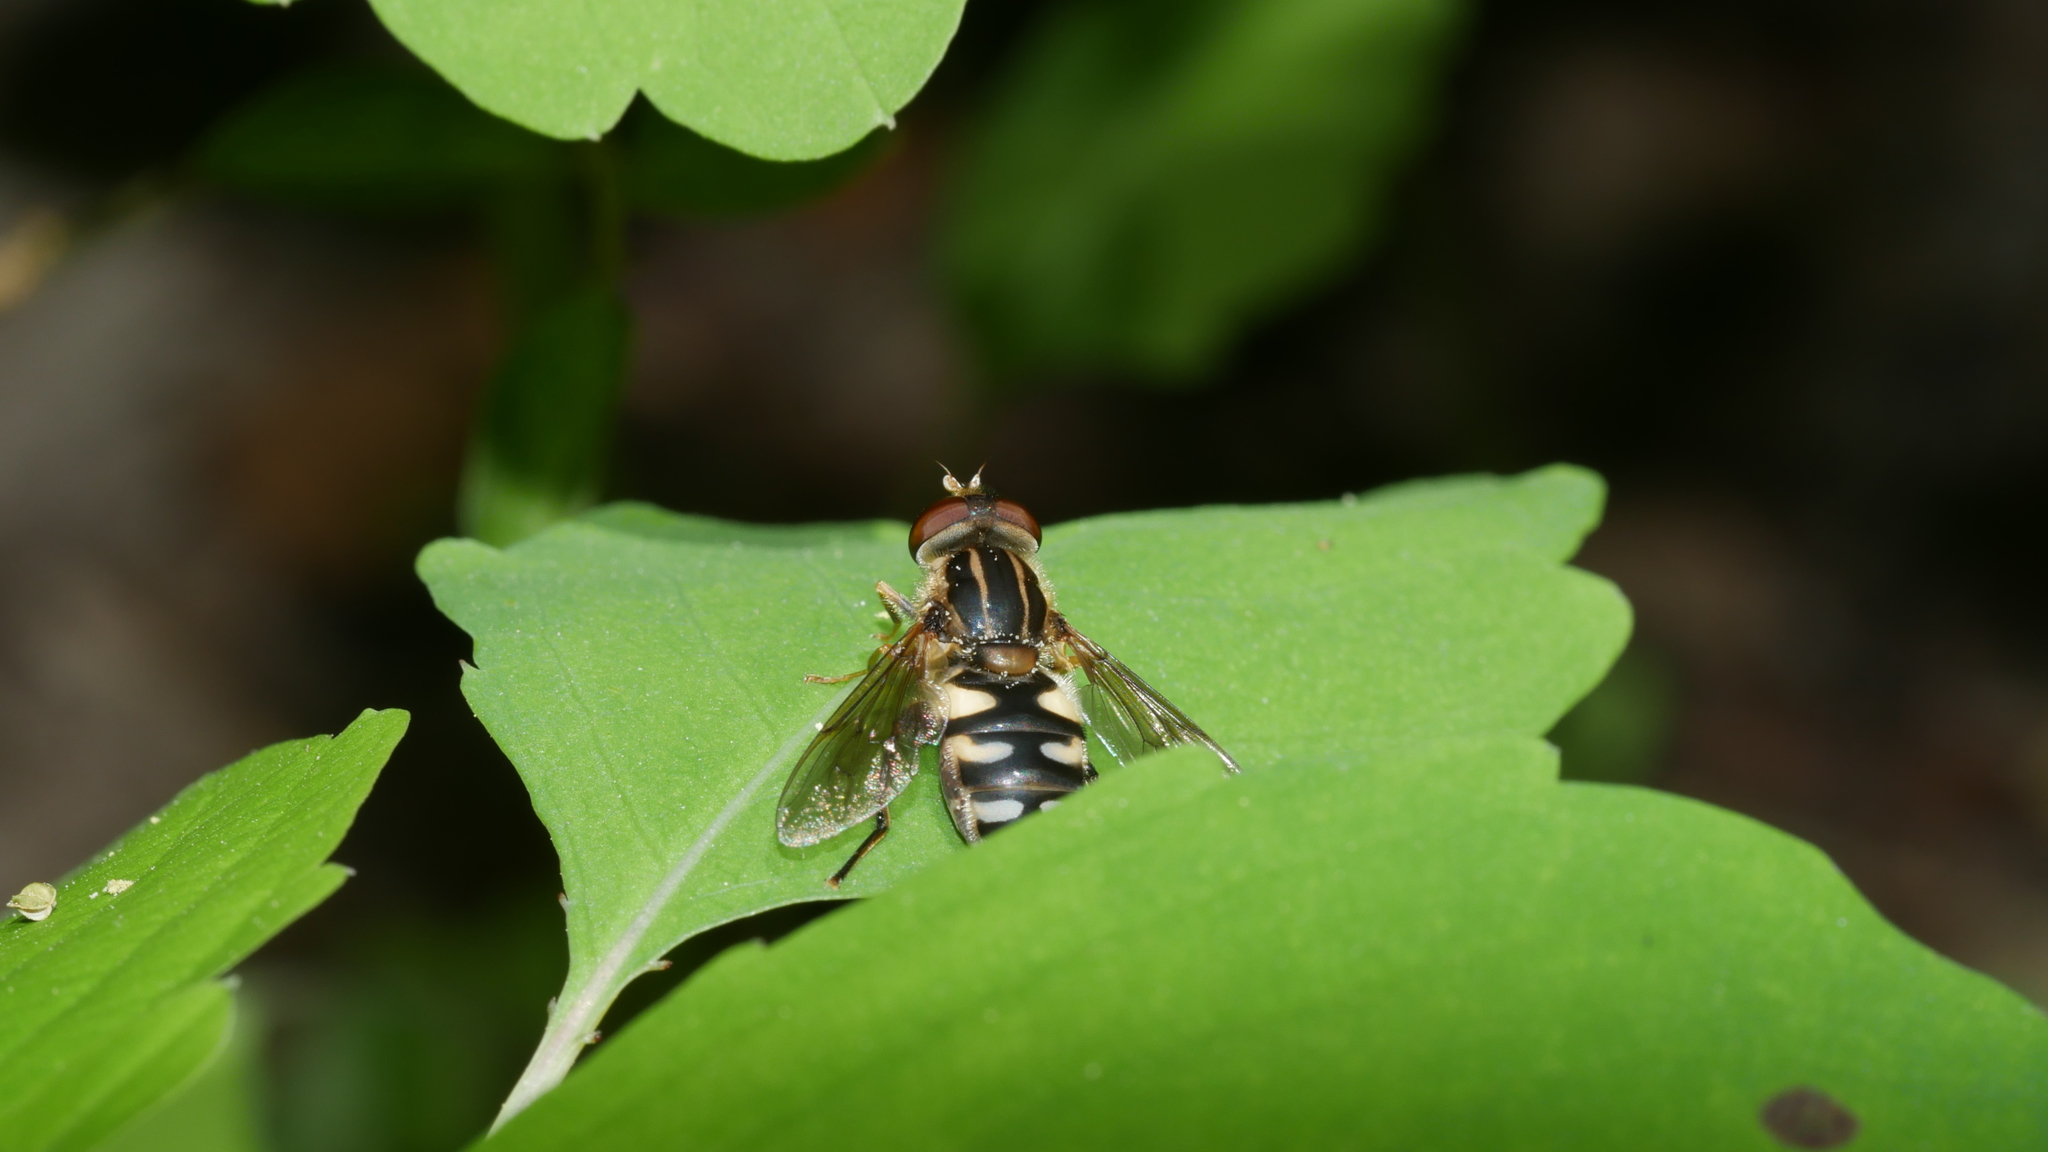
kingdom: Animalia
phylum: Arthropoda
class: Insecta
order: Diptera
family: Syrphidae
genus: Parhelophilus
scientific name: Parhelophilus flavifacies
